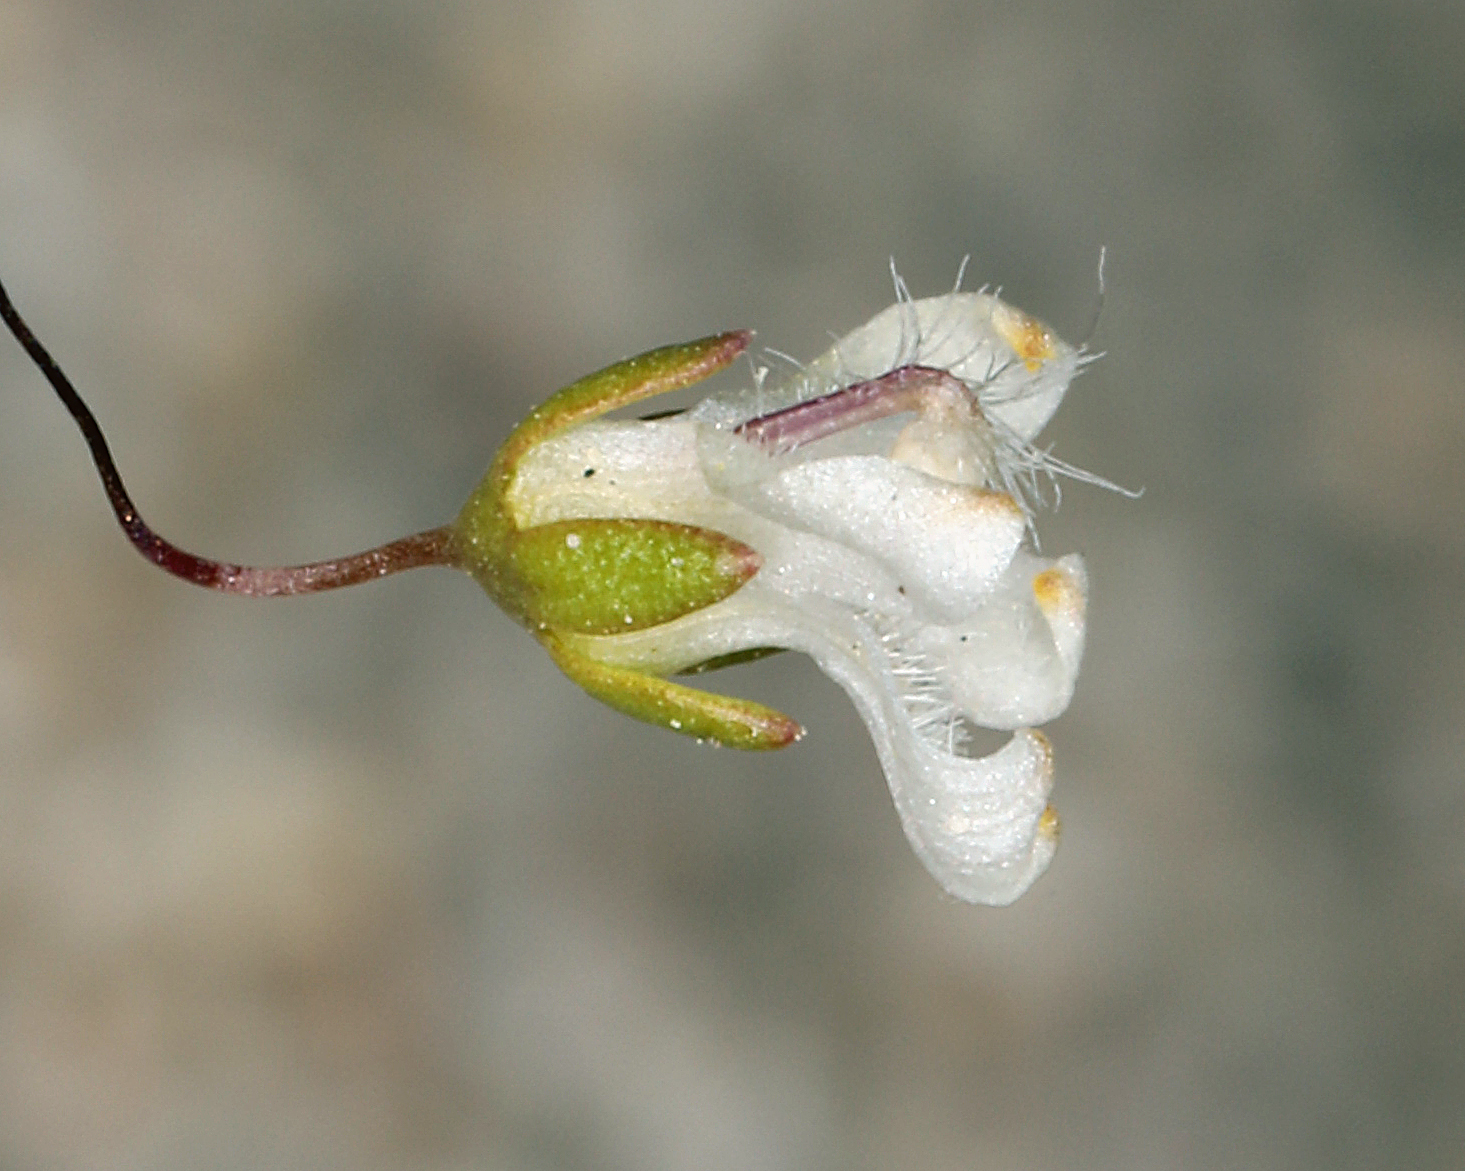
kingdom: Plantae
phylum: Tracheophyta
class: Magnoliopsida
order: Asterales
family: Campanulaceae
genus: Nemacladus
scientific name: Nemacladus matsonii
